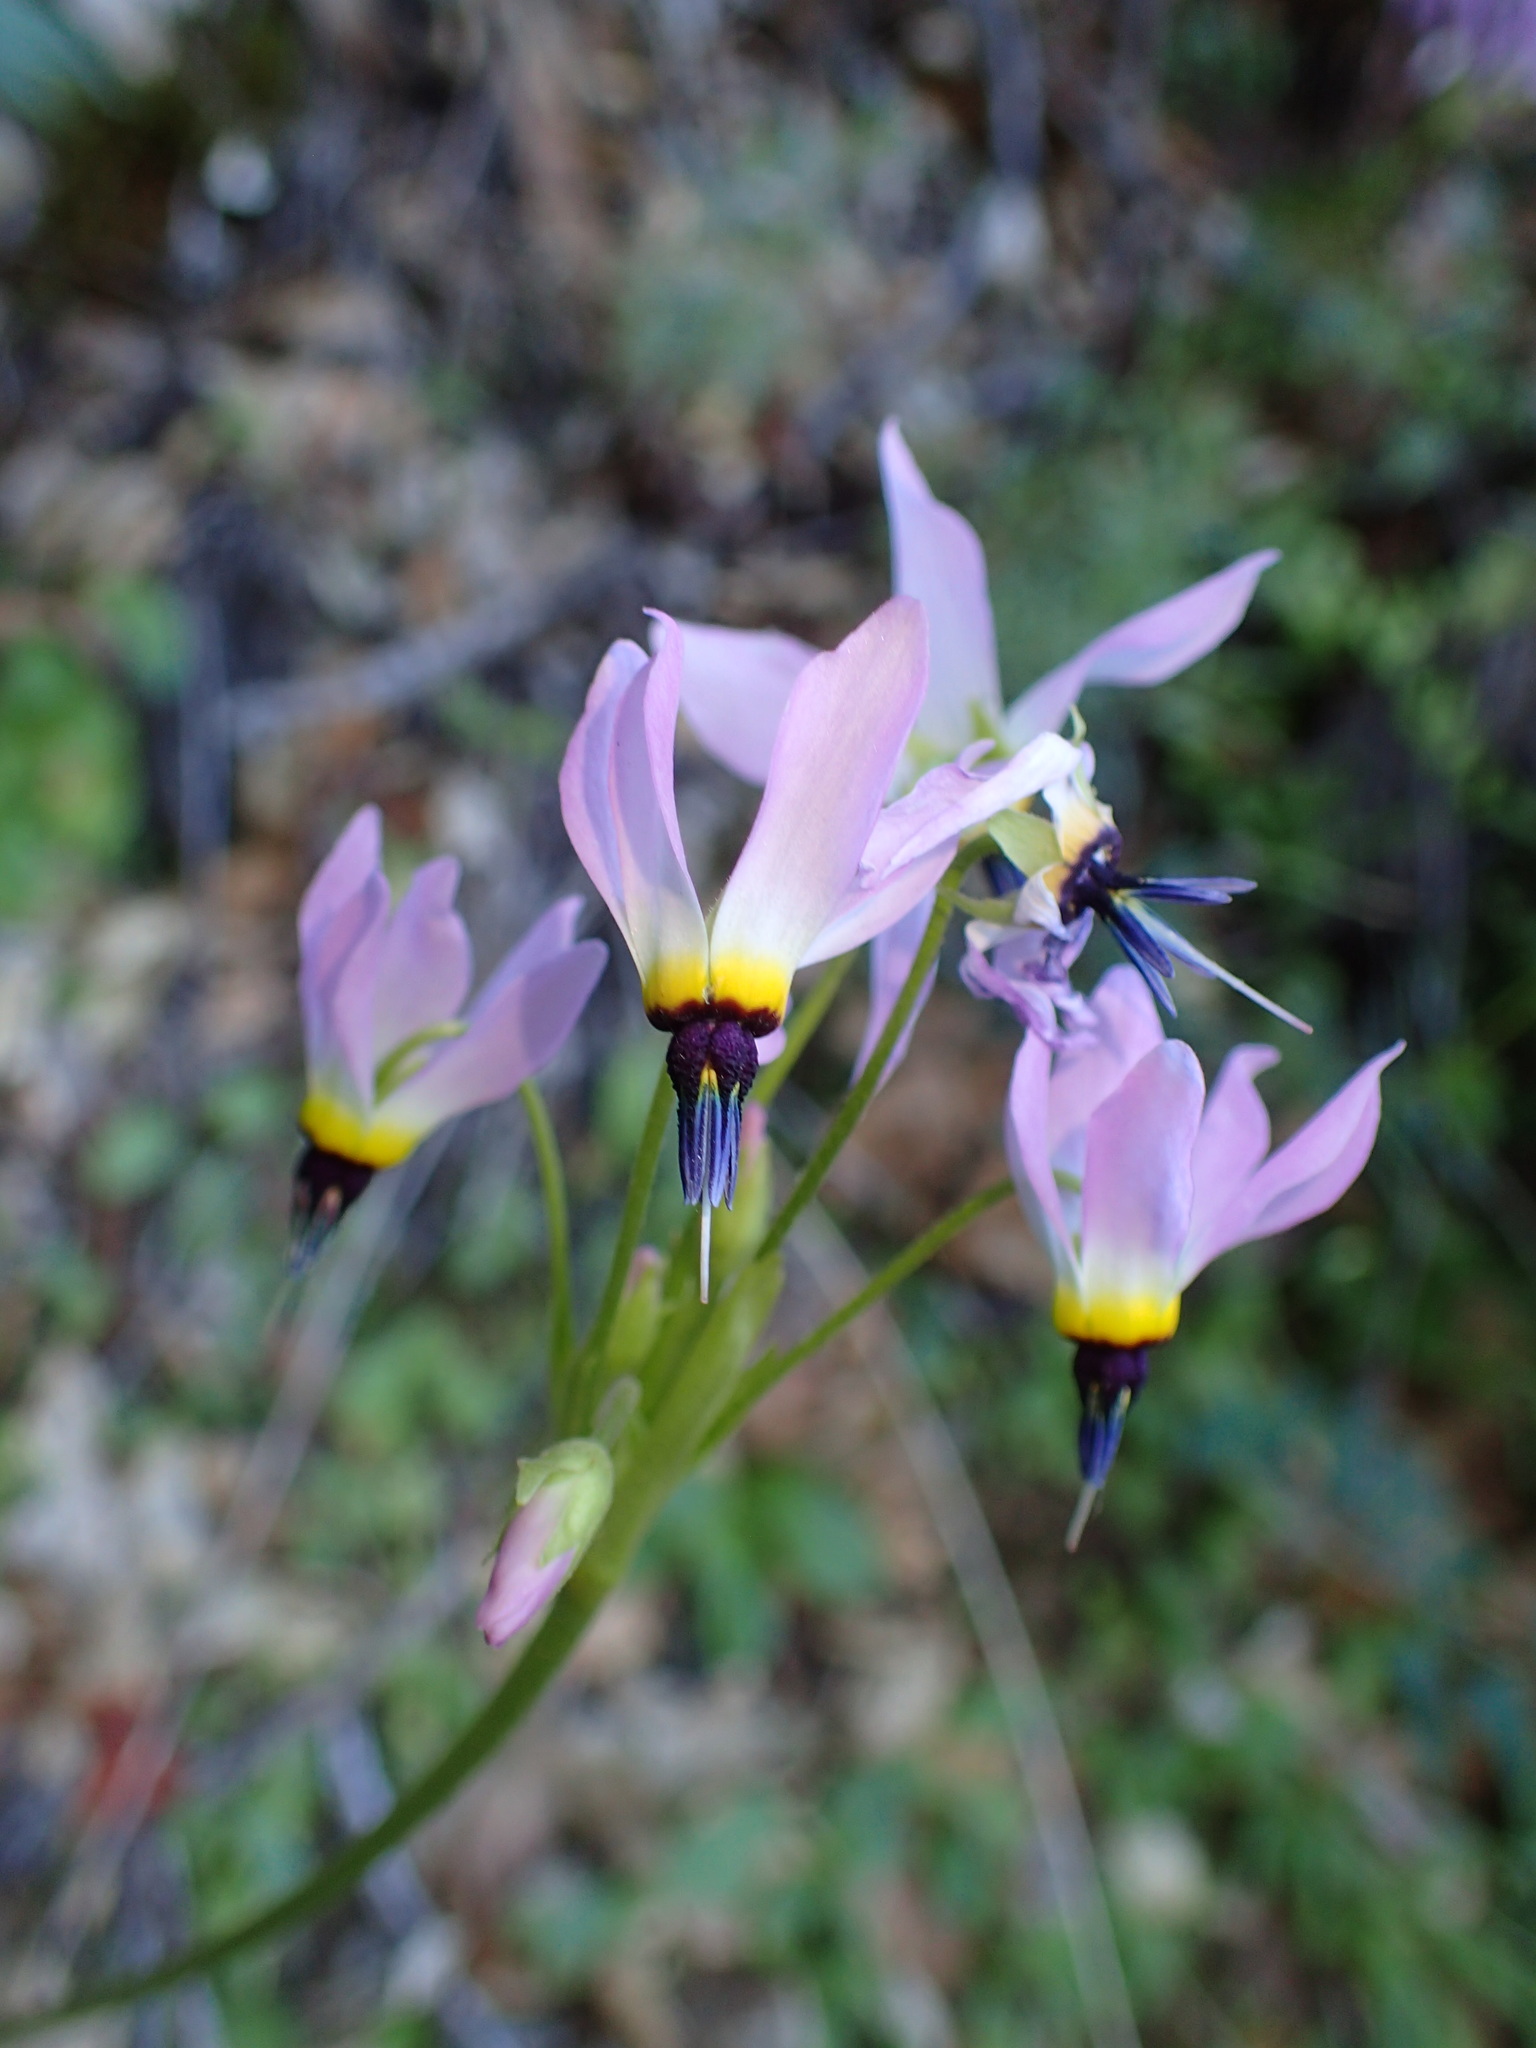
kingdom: Plantae
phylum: Tracheophyta
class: Magnoliopsida
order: Ericales
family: Primulaceae
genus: Dodecatheon
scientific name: Dodecatheon clevelandii
